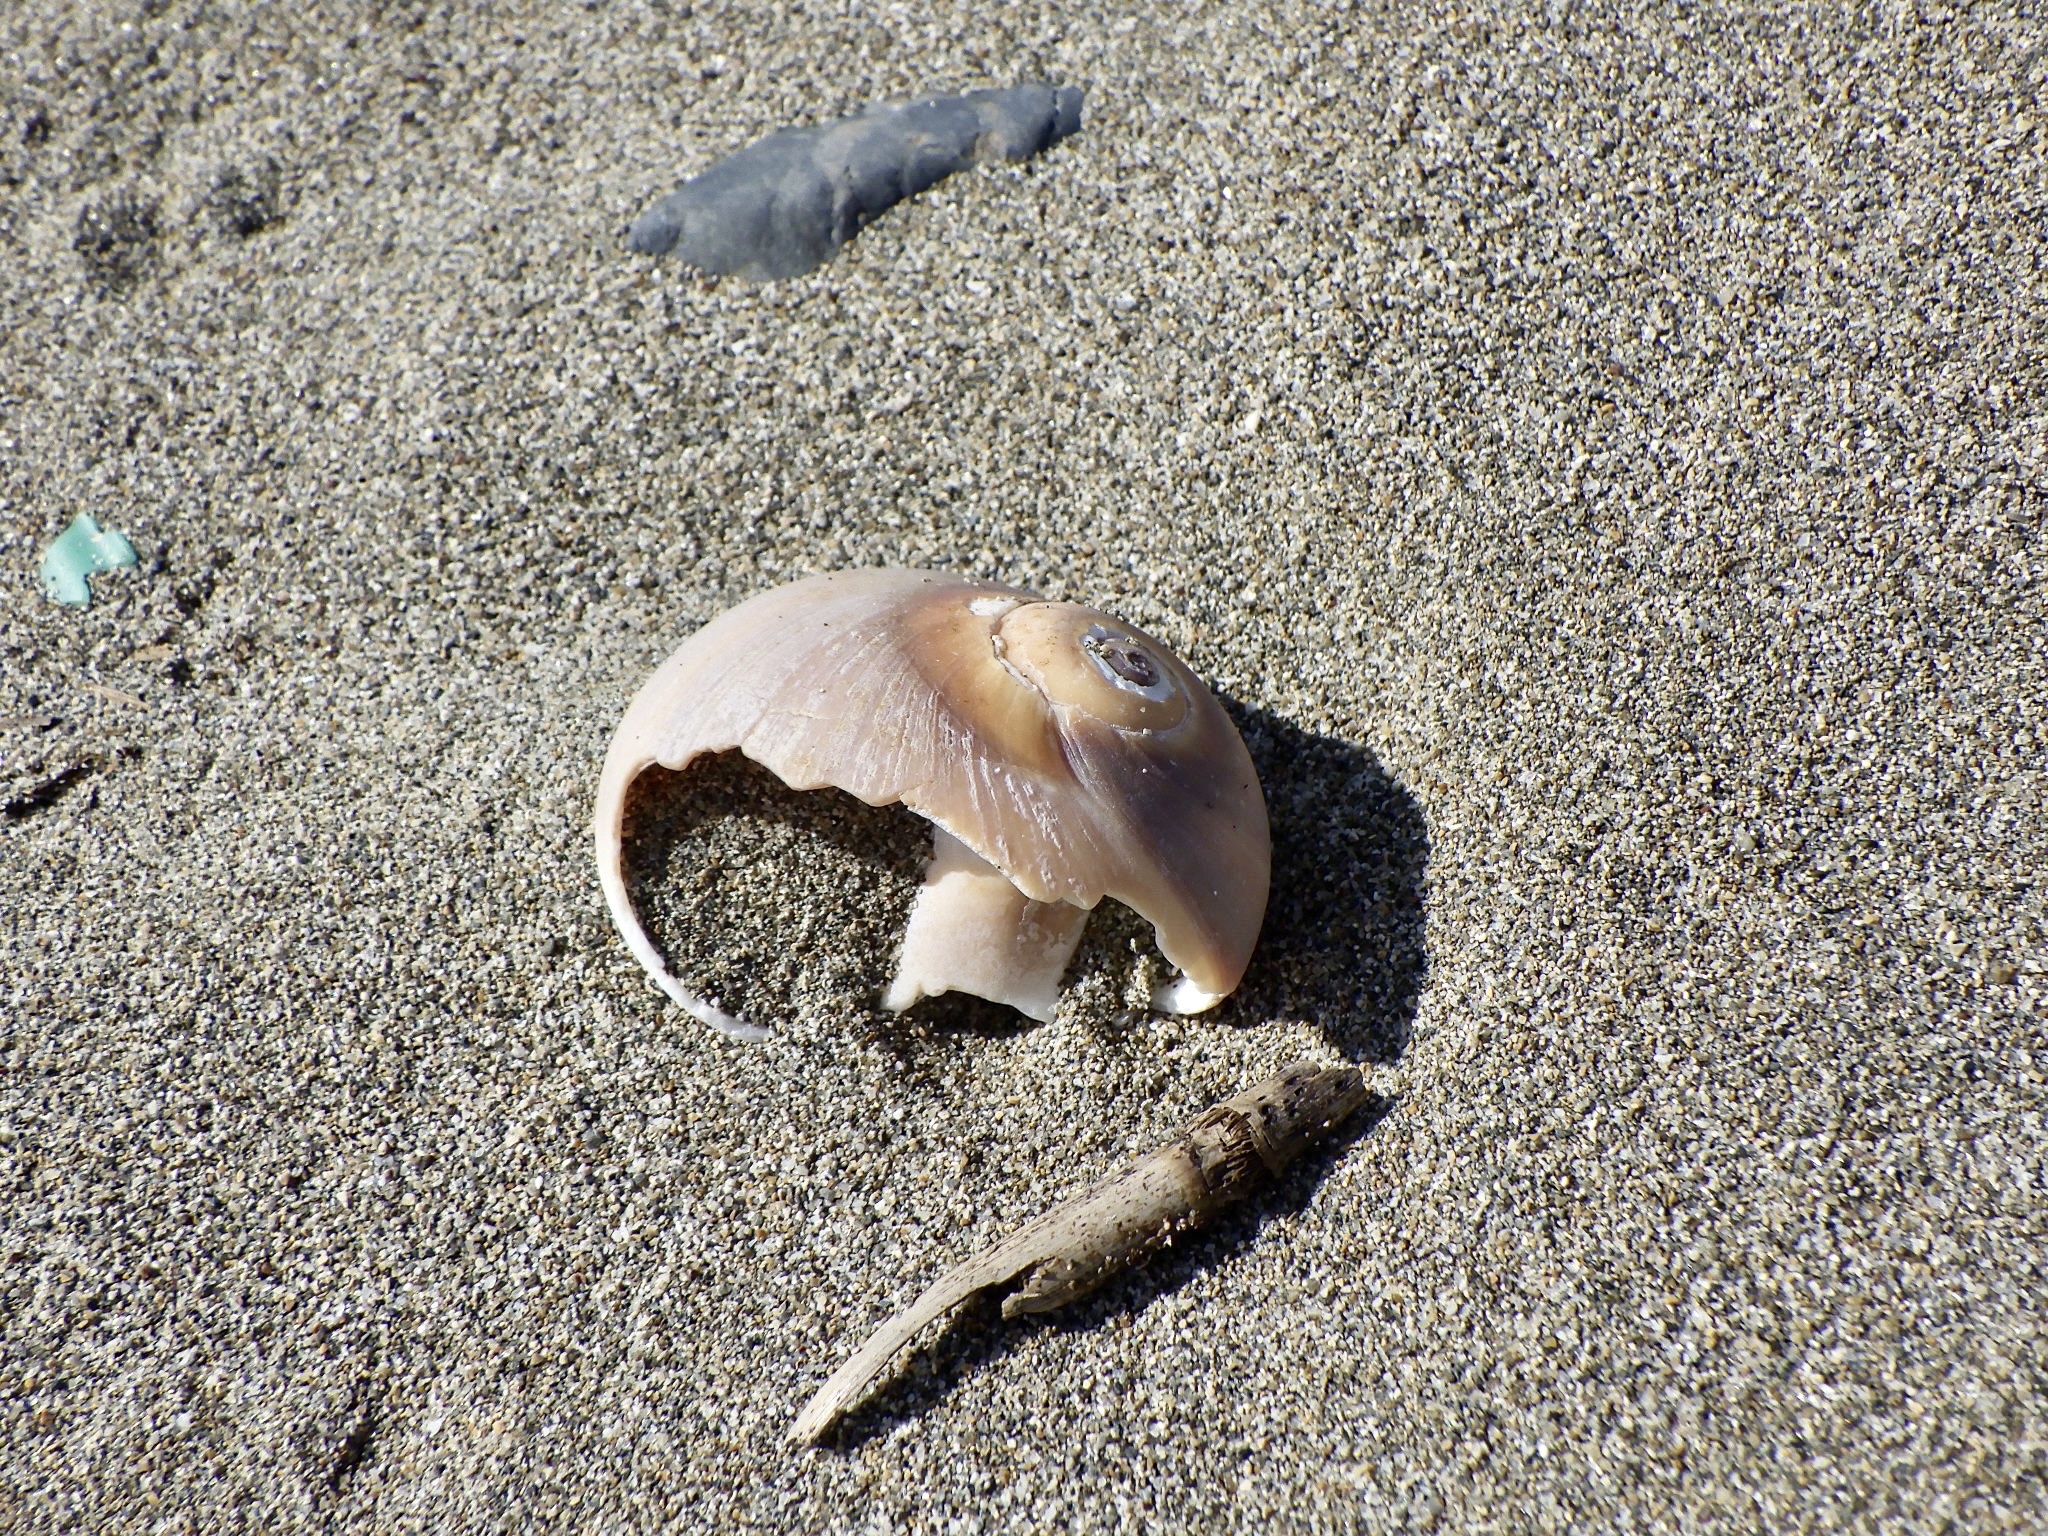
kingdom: Animalia
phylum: Mollusca
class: Gastropoda
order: Littorinimorpha
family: Naticidae
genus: Neverita
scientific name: Neverita didyma
